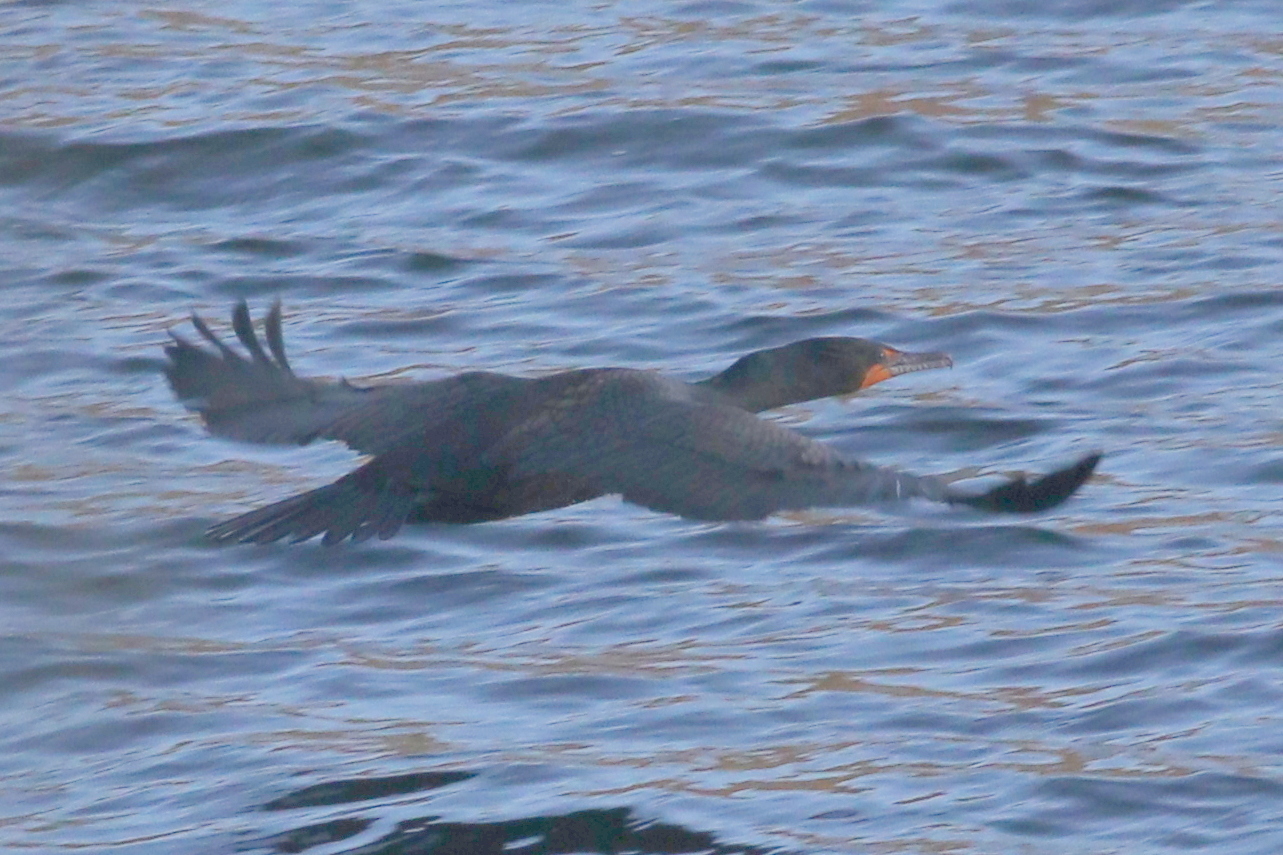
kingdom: Animalia
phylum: Chordata
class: Aves
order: Suliformes
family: Phalacrocoracidae
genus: Phalacrocorax
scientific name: Phalacrocorax auritus
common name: Double-crested cormorant
